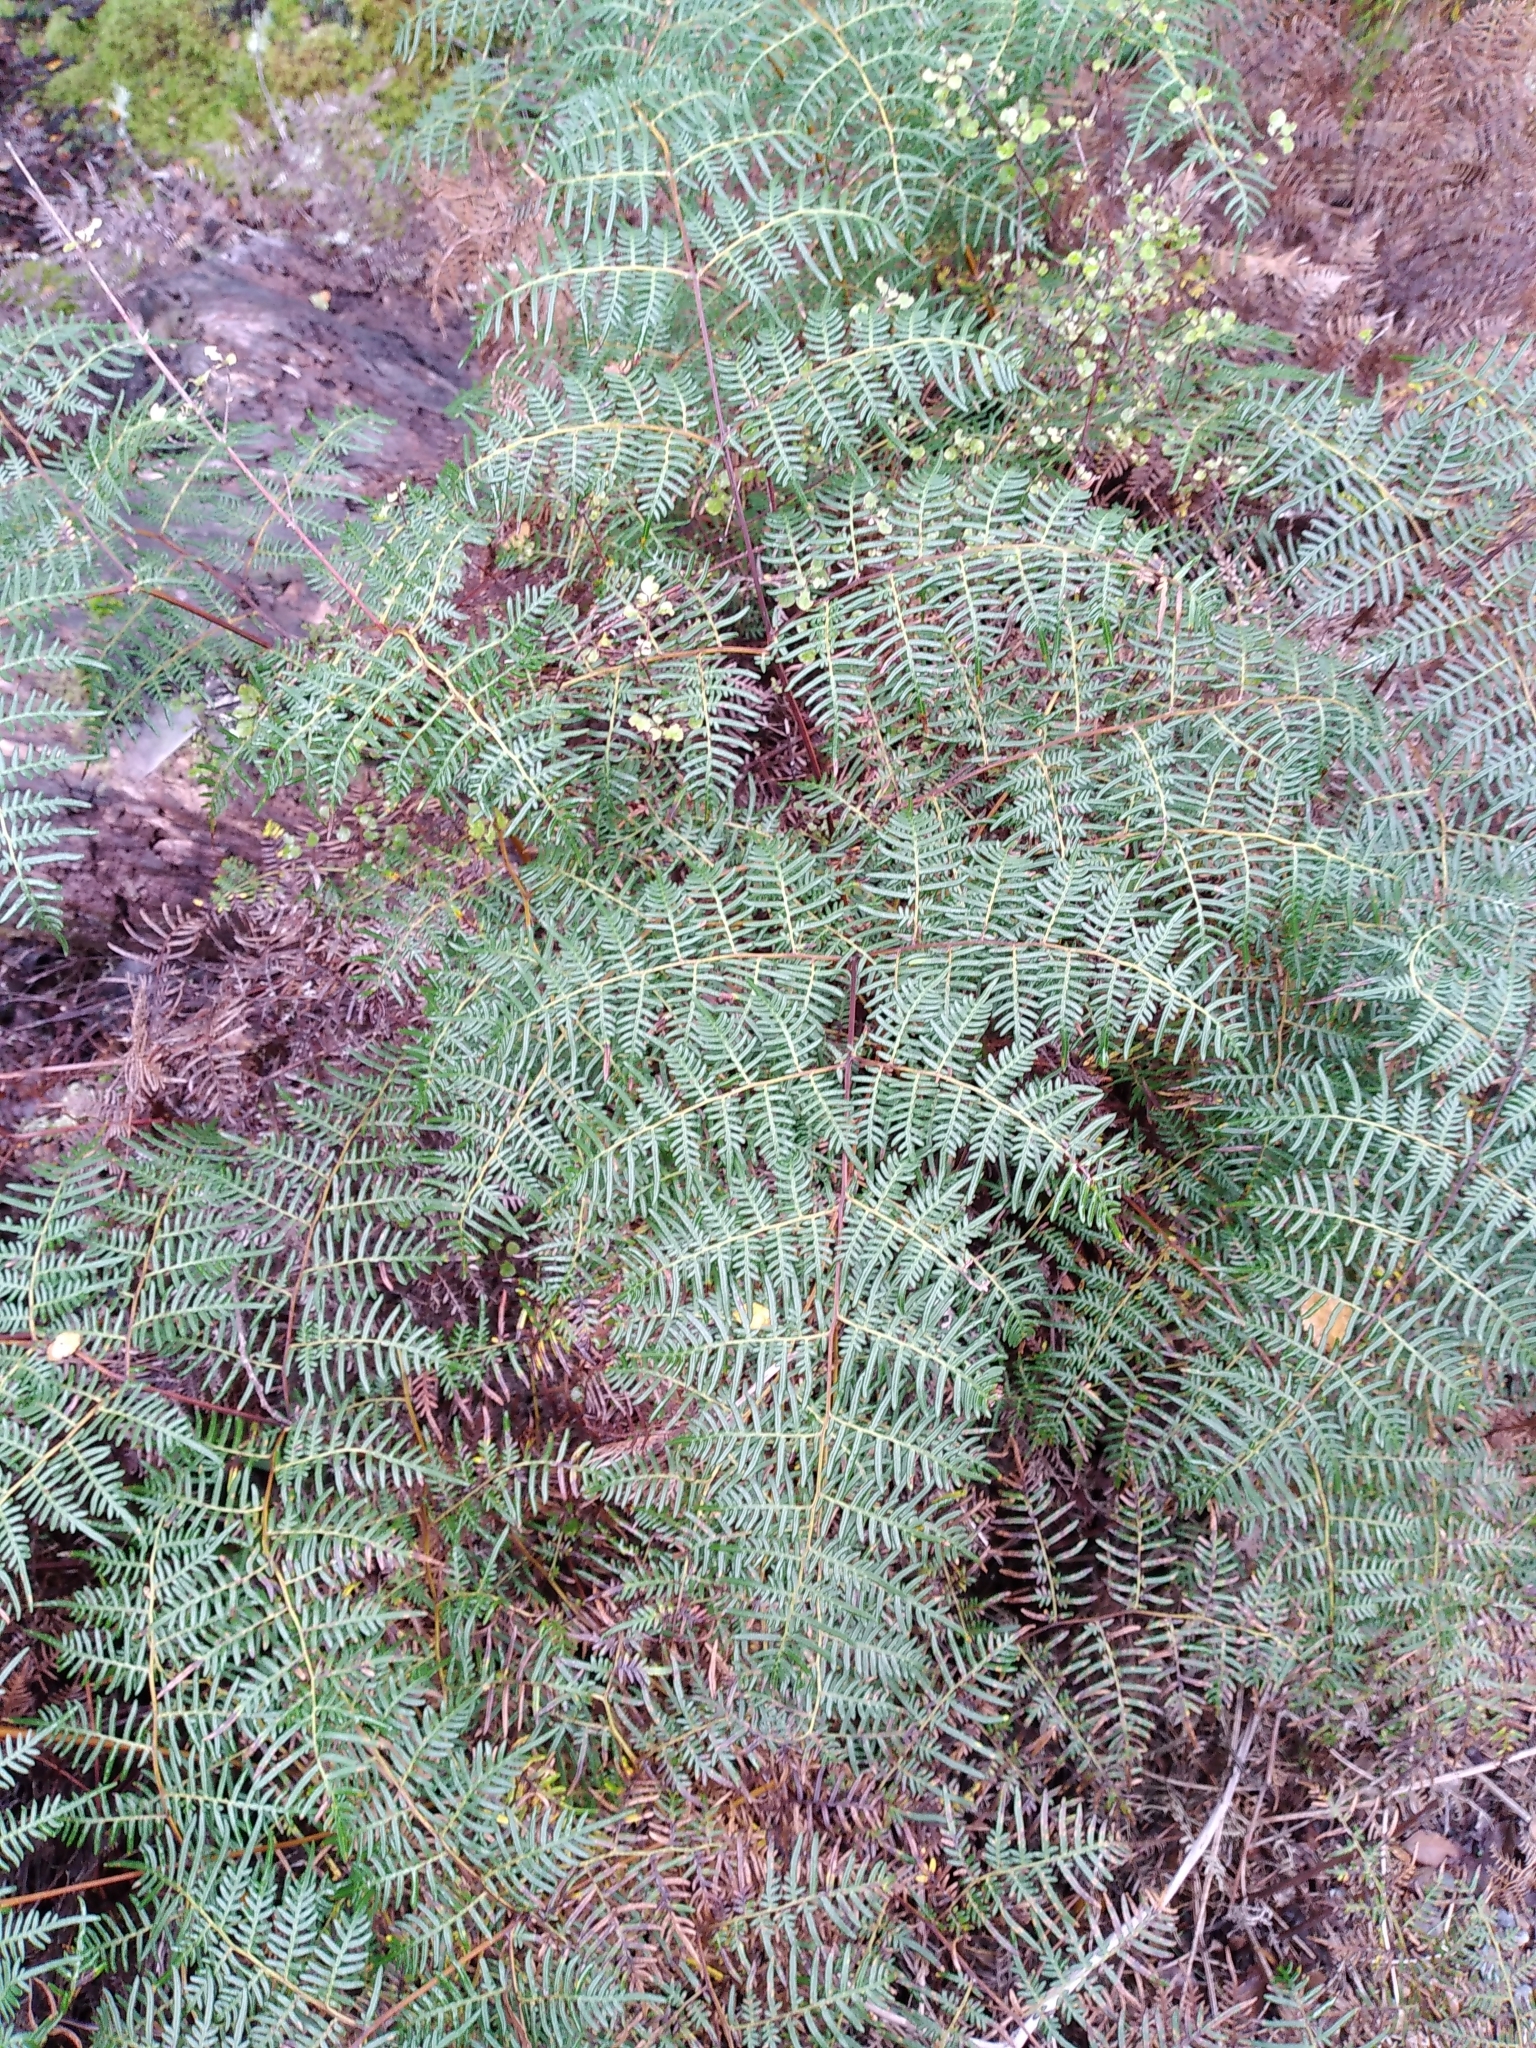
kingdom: Plantae
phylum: Tracheophyta
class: Polypodiopsida
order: Polypodiales
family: Dennstaedtiaceae
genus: Pteridium
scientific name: Pteridium esculentum
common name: Bracken fern
